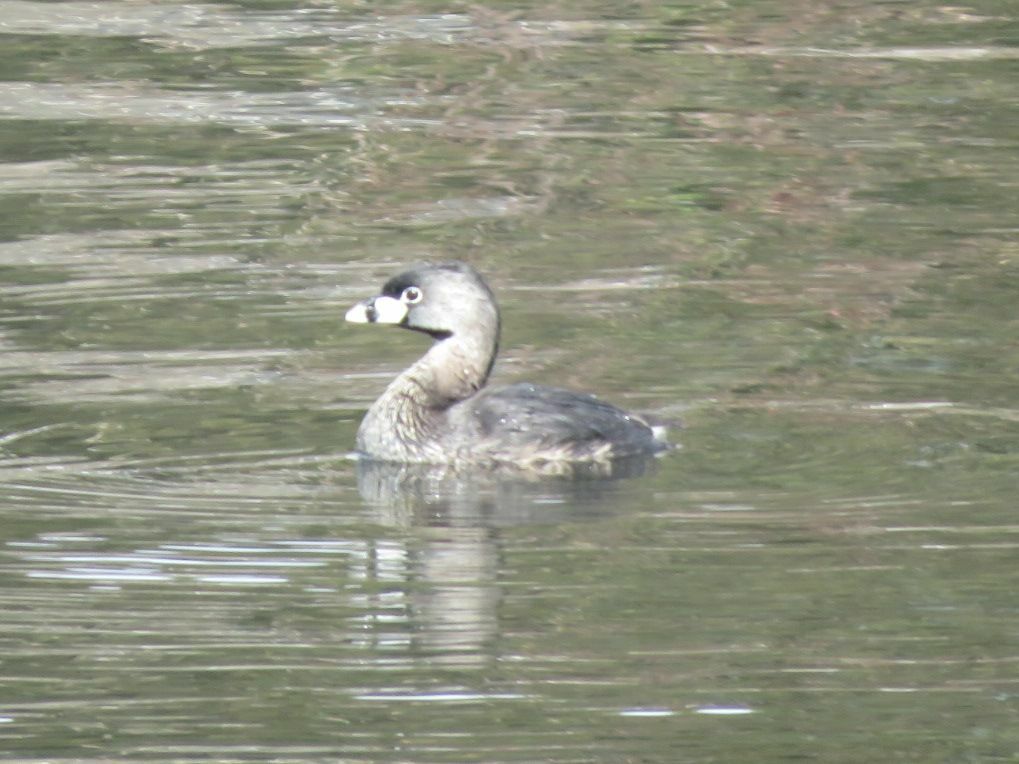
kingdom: Animalia
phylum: Chordata
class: Aves
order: Podicipediformes
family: Podicipedidae
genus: Podilymbus
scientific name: Podilymbus podiceps
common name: Pied-billed grebe
